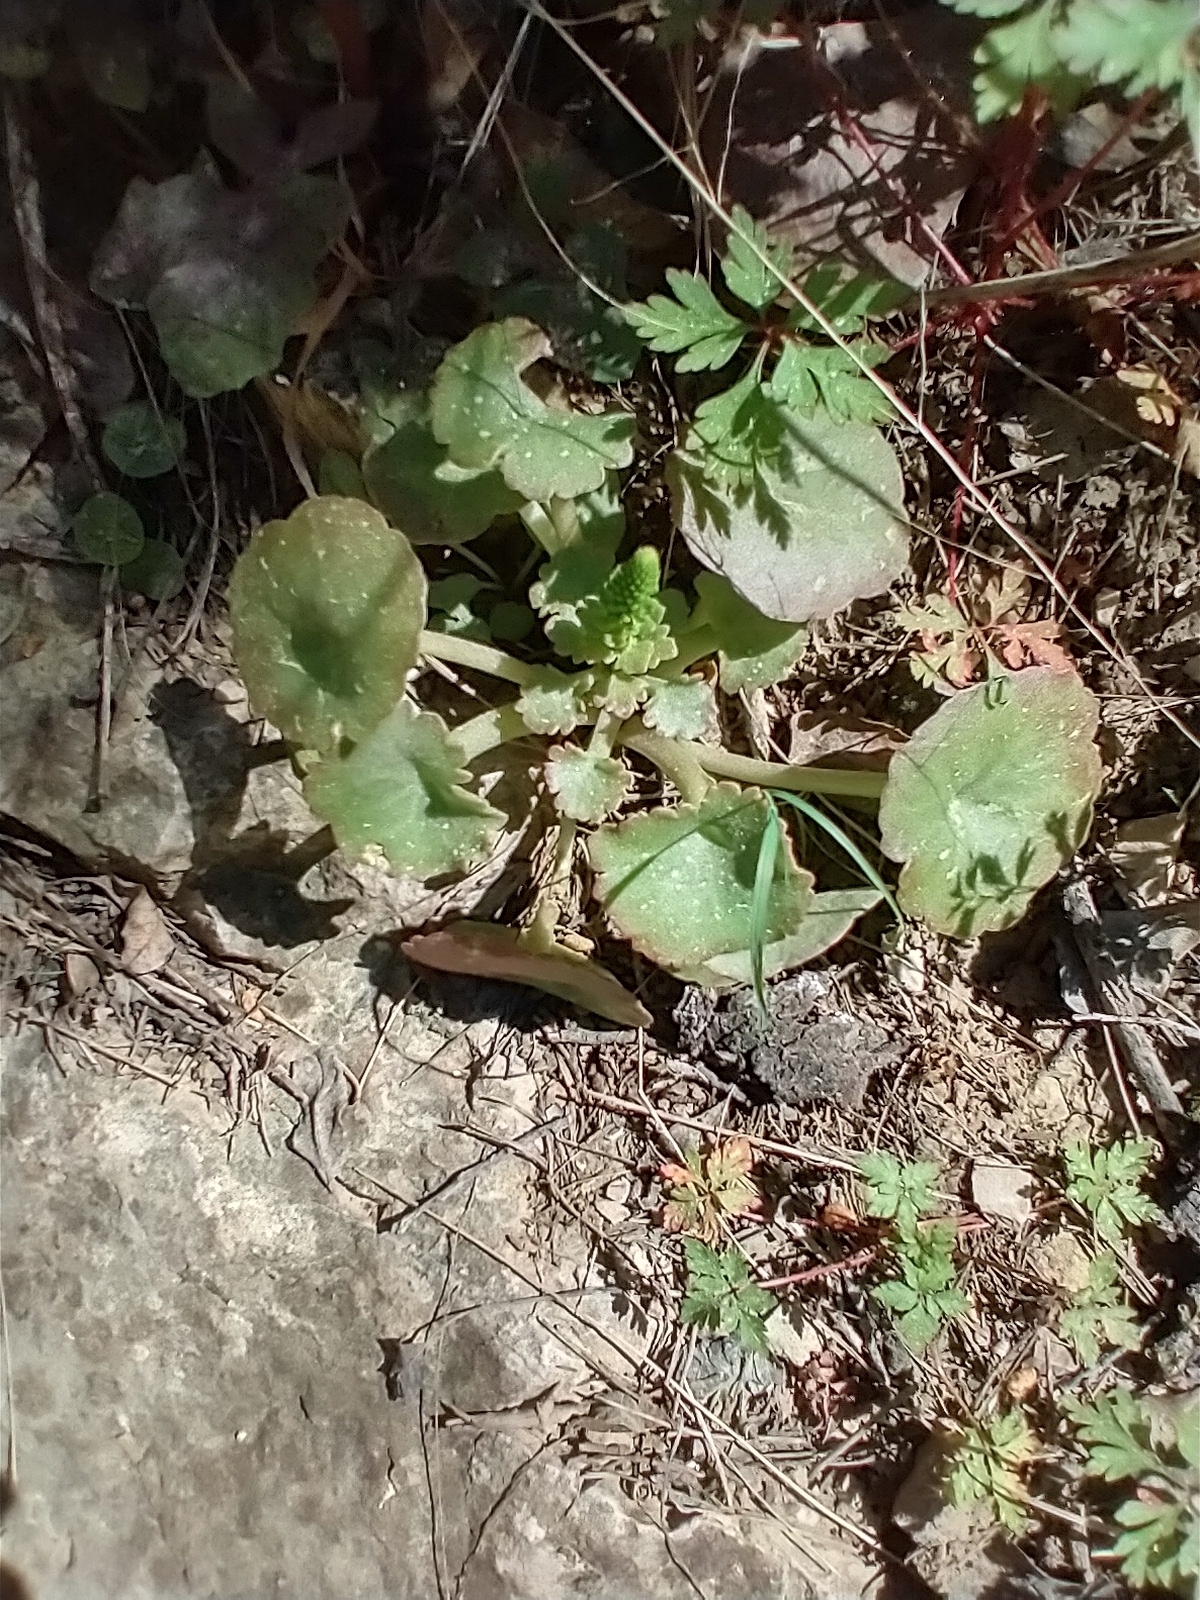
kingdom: Plantae
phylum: Tracheophyta
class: Magnoliopsida
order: Saxifragales
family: Crassulaceae
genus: Umbilicus
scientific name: Umbilicus rupestris
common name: Navelwort
